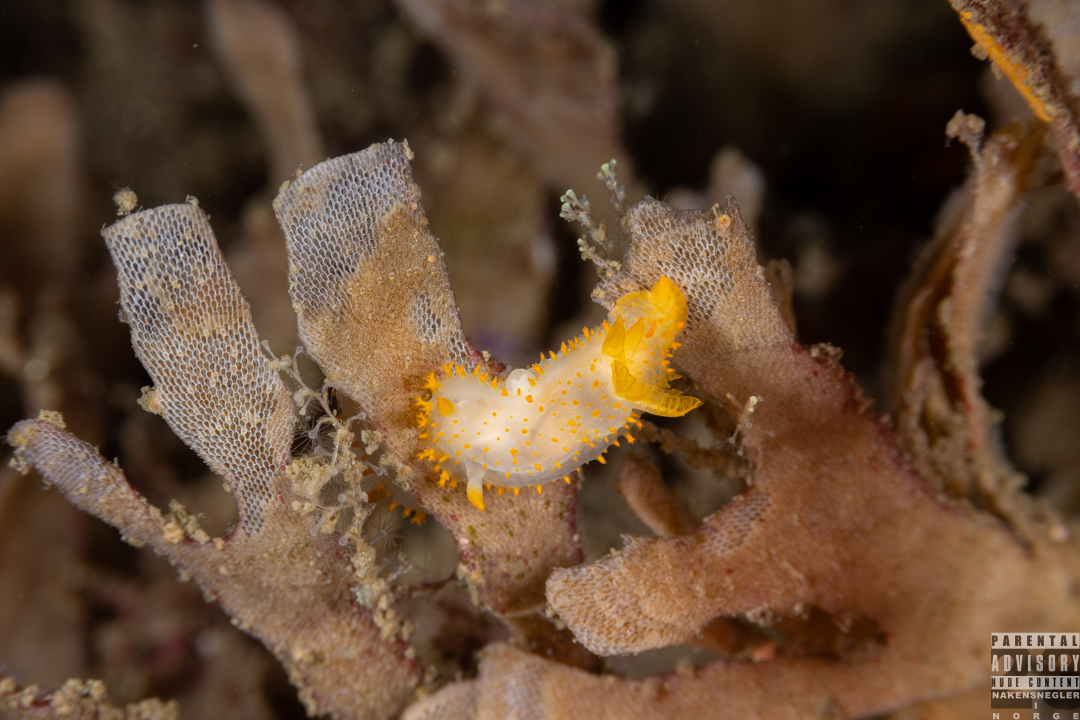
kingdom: Animalia
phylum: Mollusca
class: Gastropoda
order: Nudibranchia
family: Polyceridae
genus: Crimora
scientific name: Crimora papillata
